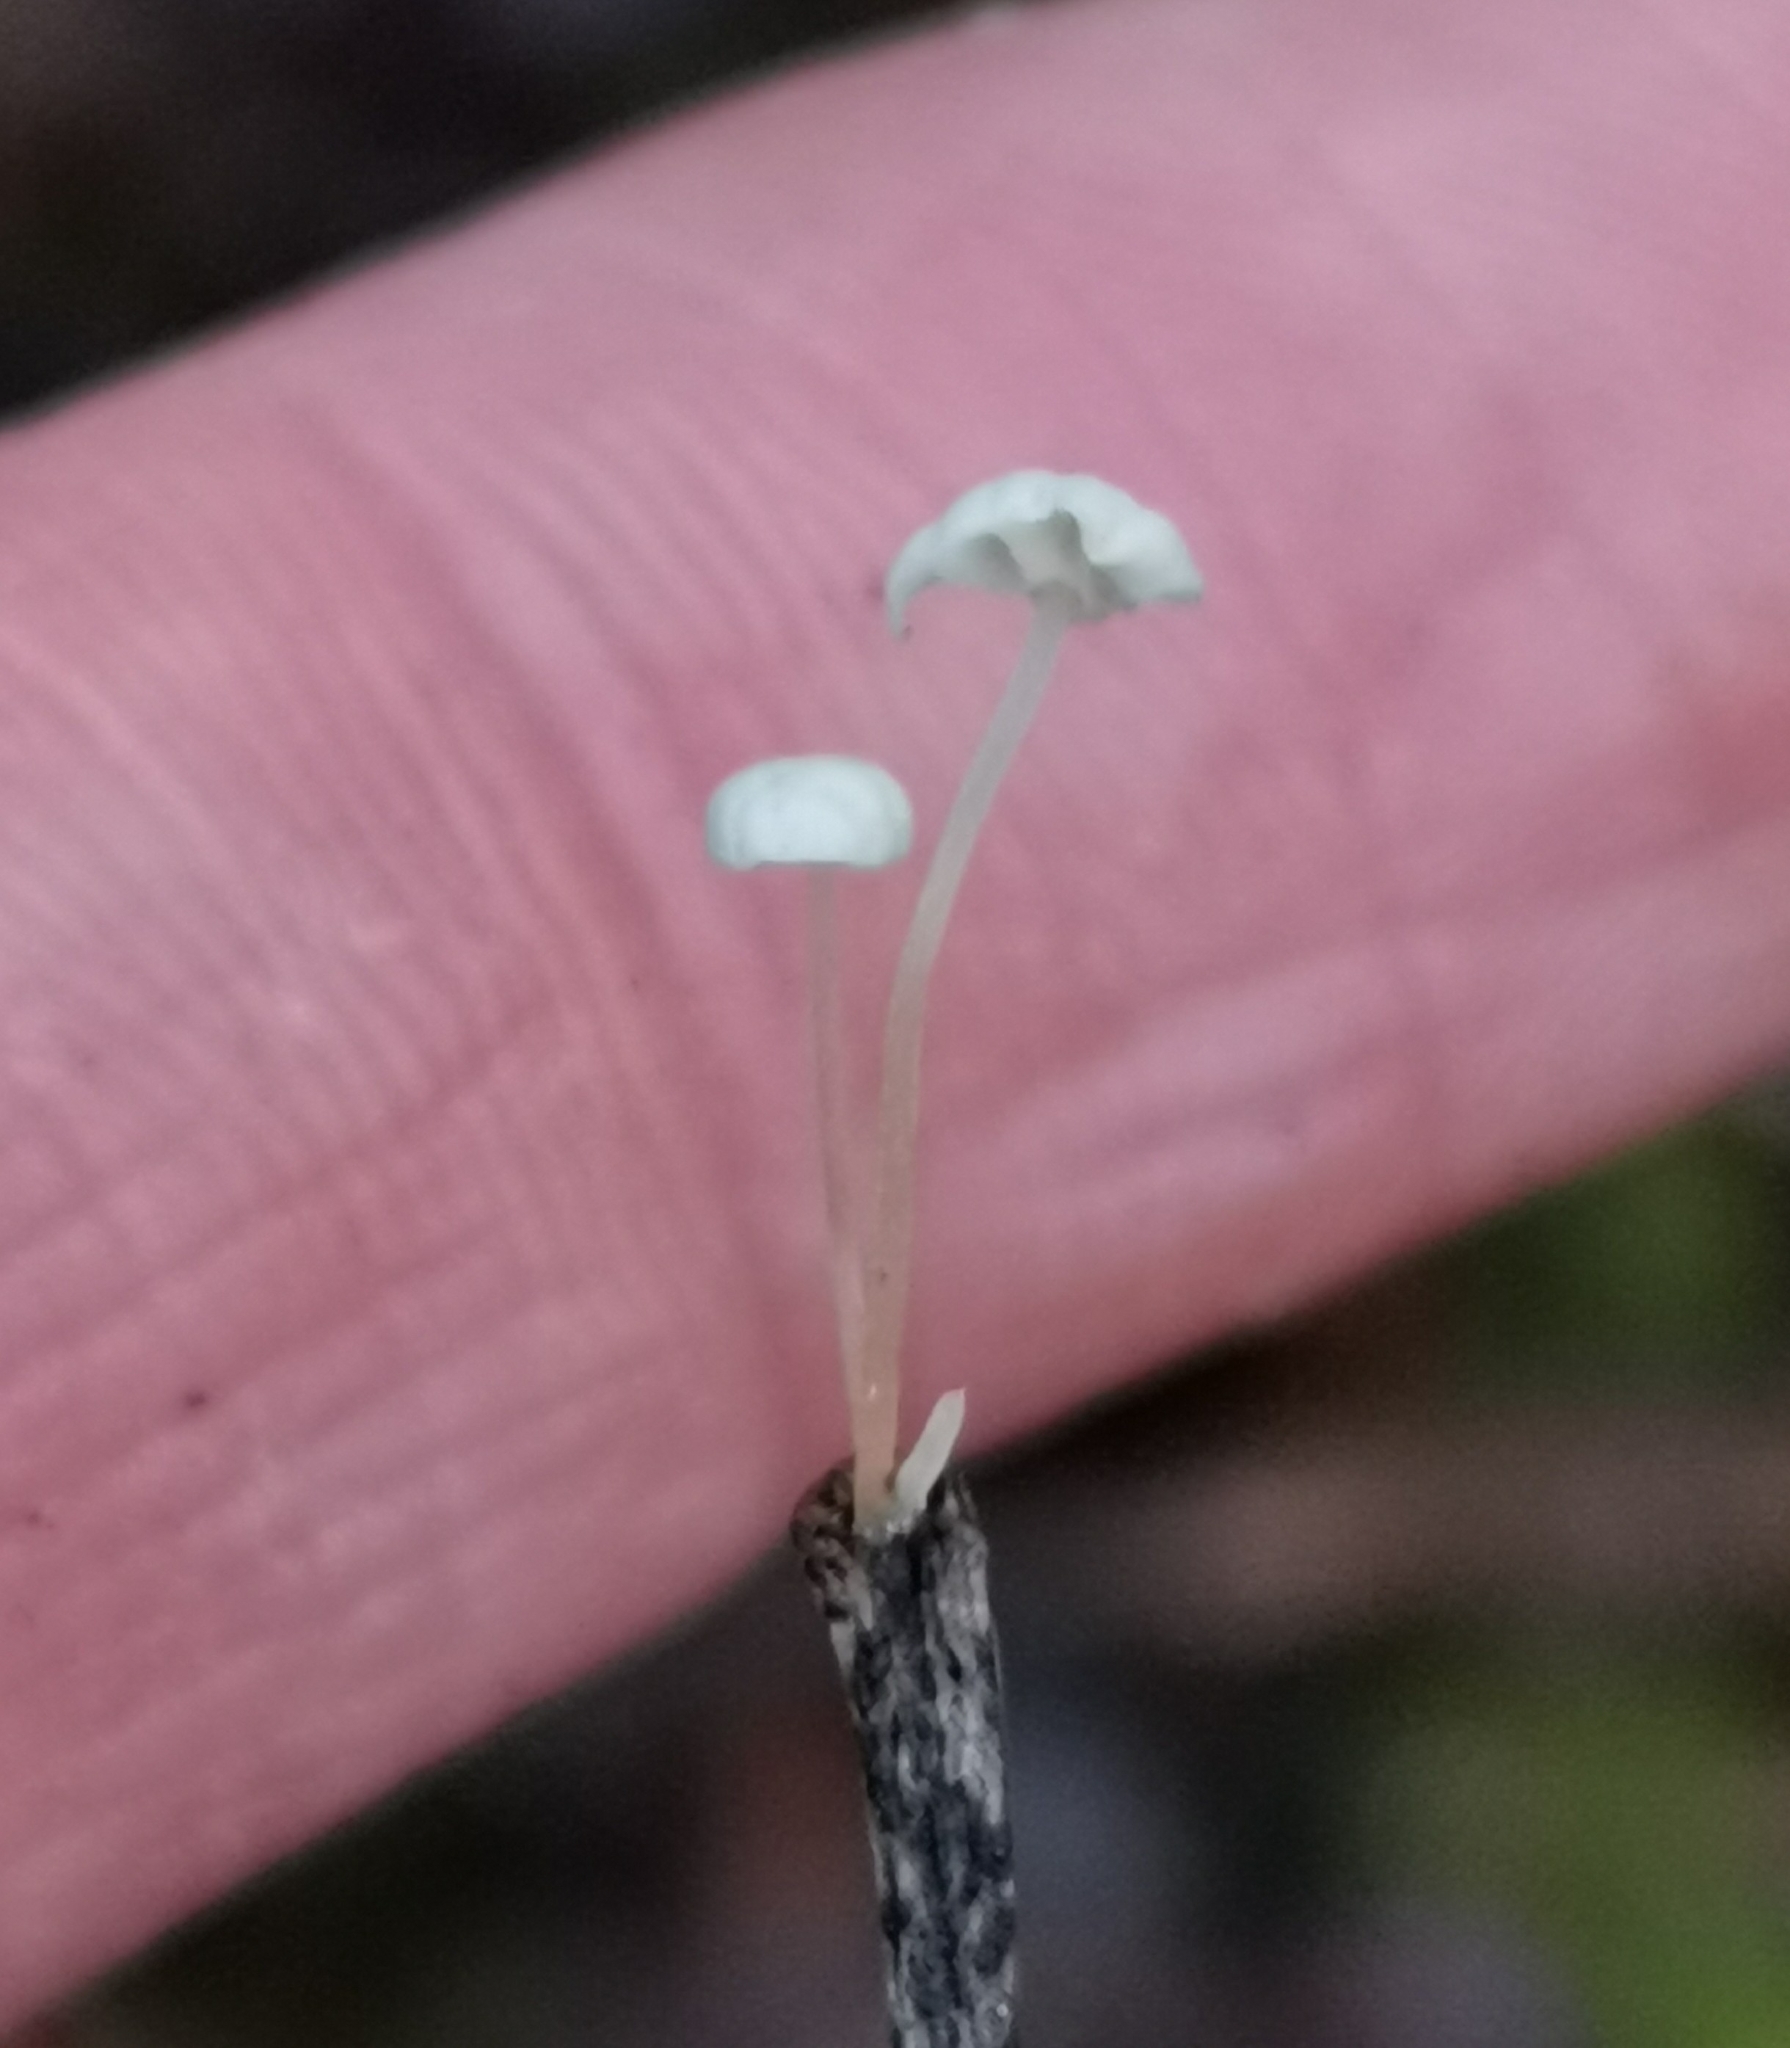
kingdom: Fungi
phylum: Basidiomycota
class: Agaricomycetes
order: Agaricales
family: Physalacriaceae
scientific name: Physalacriaceae
